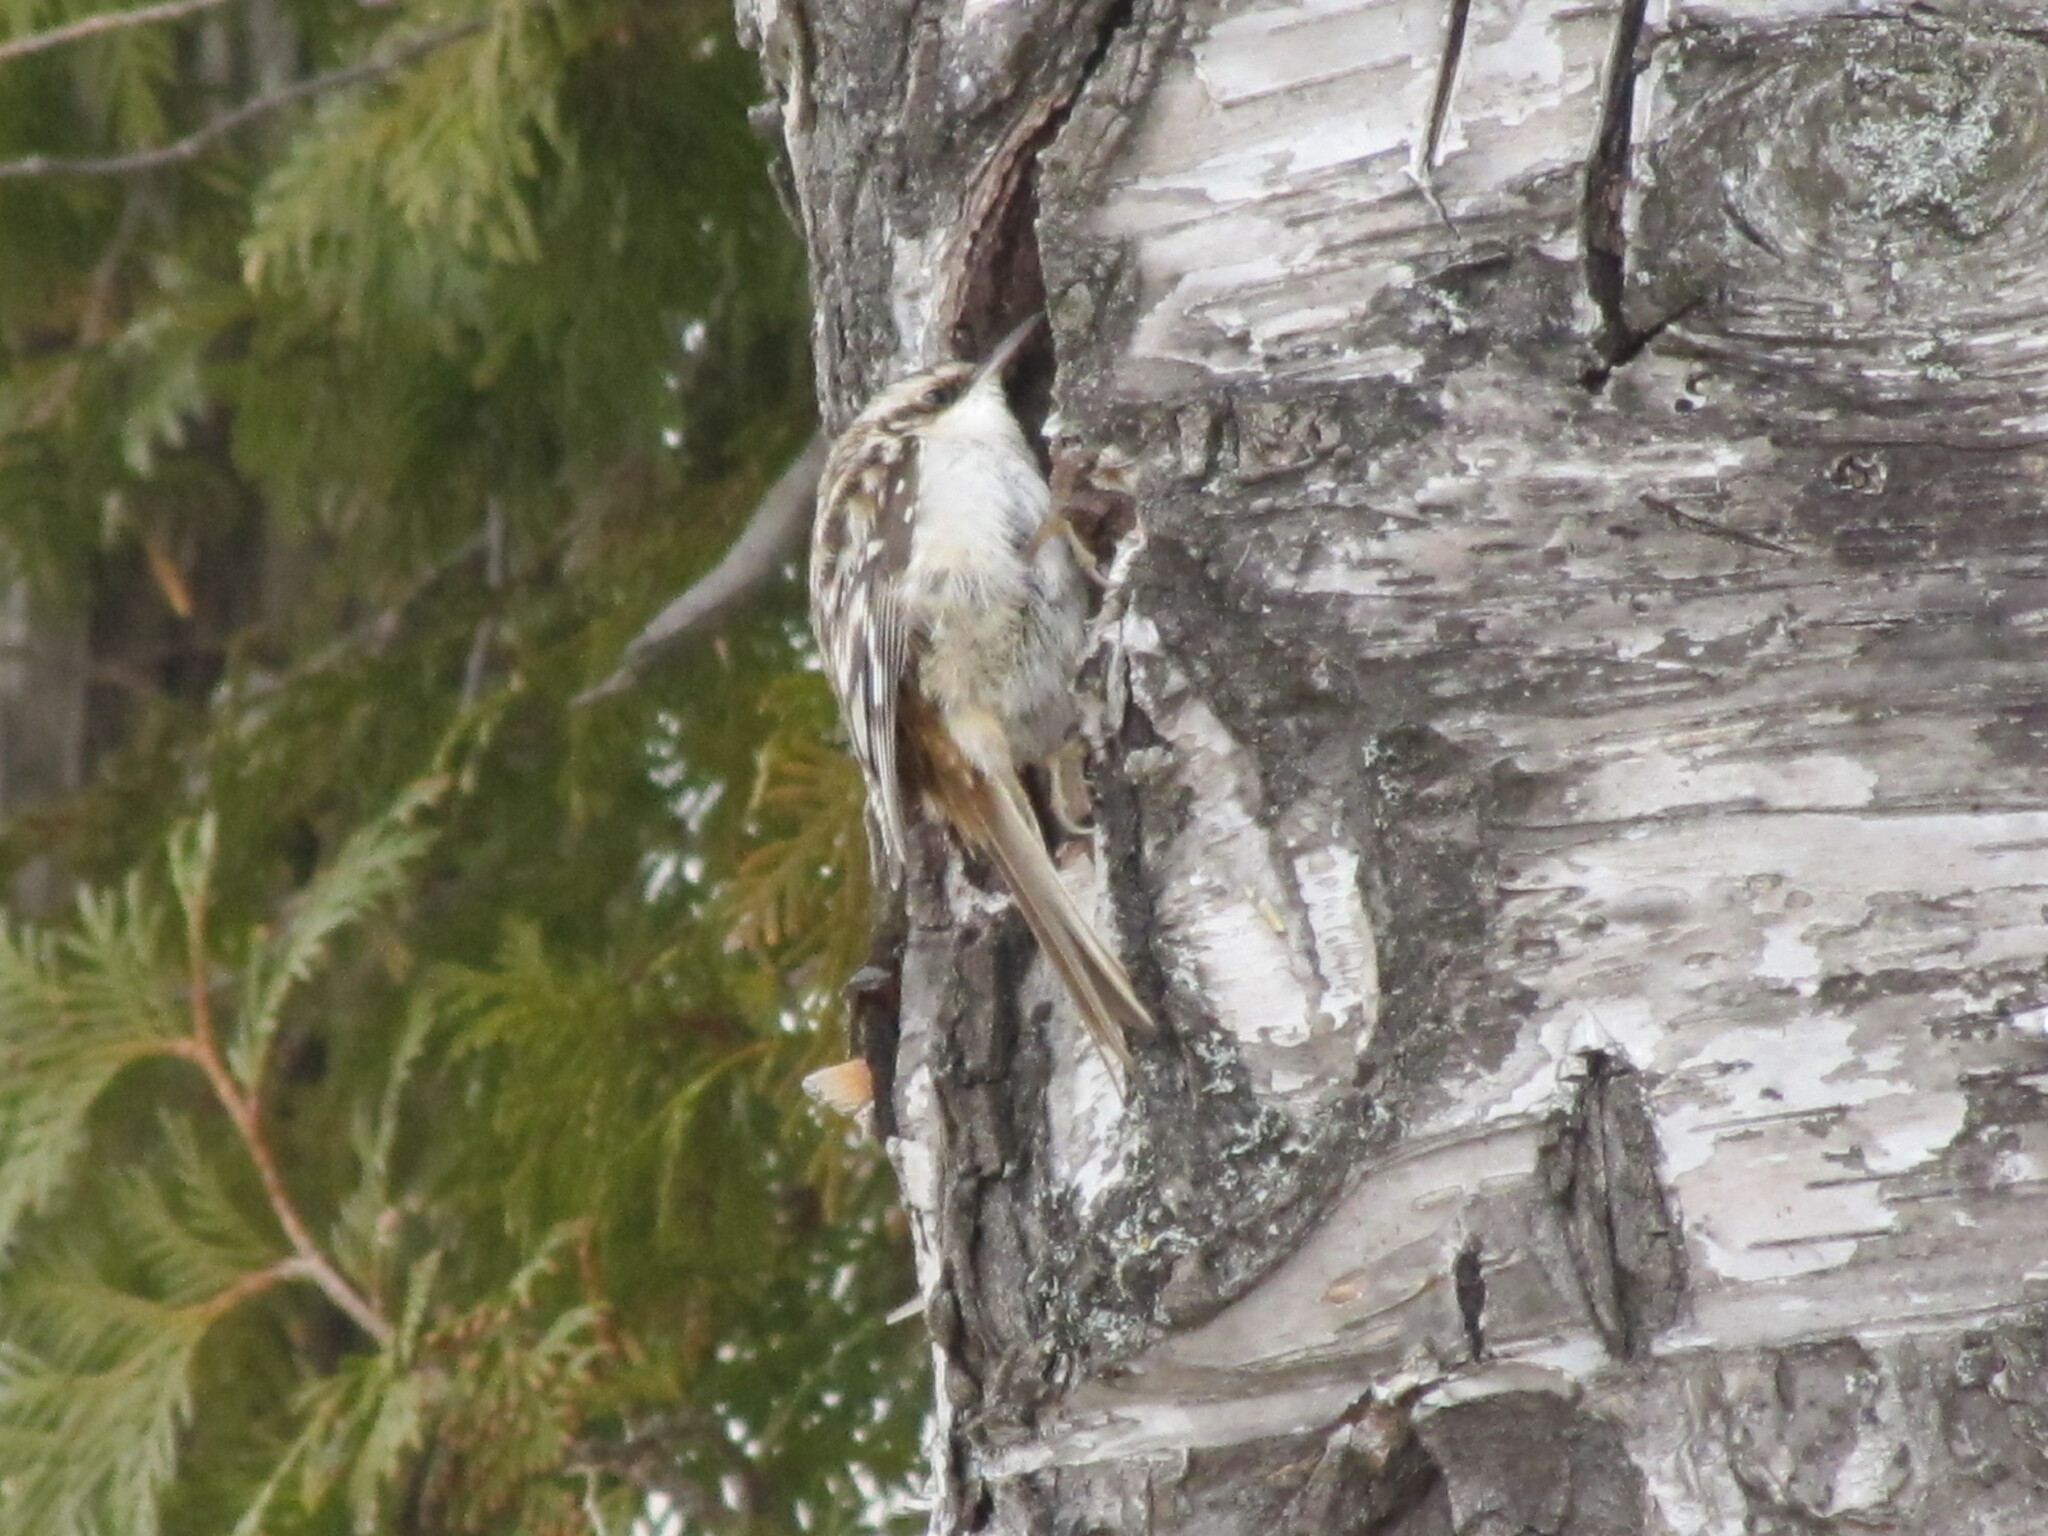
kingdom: Animalia
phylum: Chordata
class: Aves
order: Passeriformes
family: Certhiidae
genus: Certhia
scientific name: Certhia americana
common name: Brown creeper
